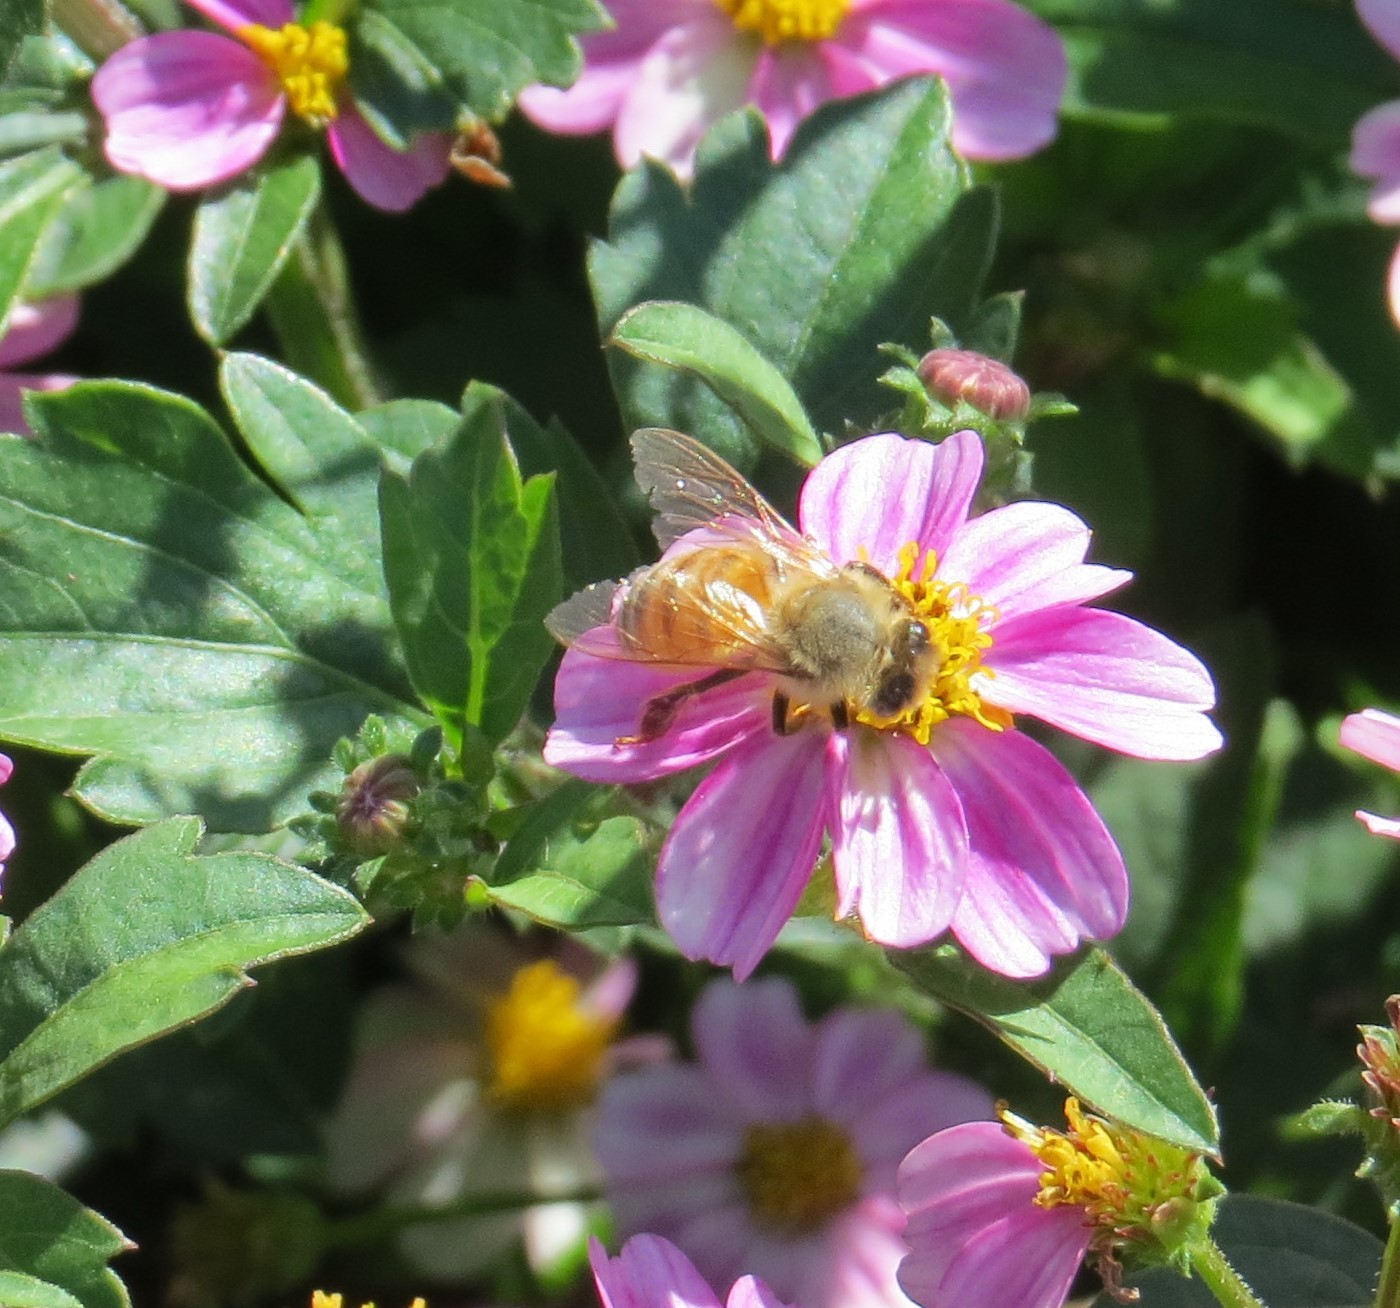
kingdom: Animalia
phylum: Arthropoda
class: Insecta
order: Hymenoptera
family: Apidae
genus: Apis
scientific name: Apis mellifera
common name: Honey bee
